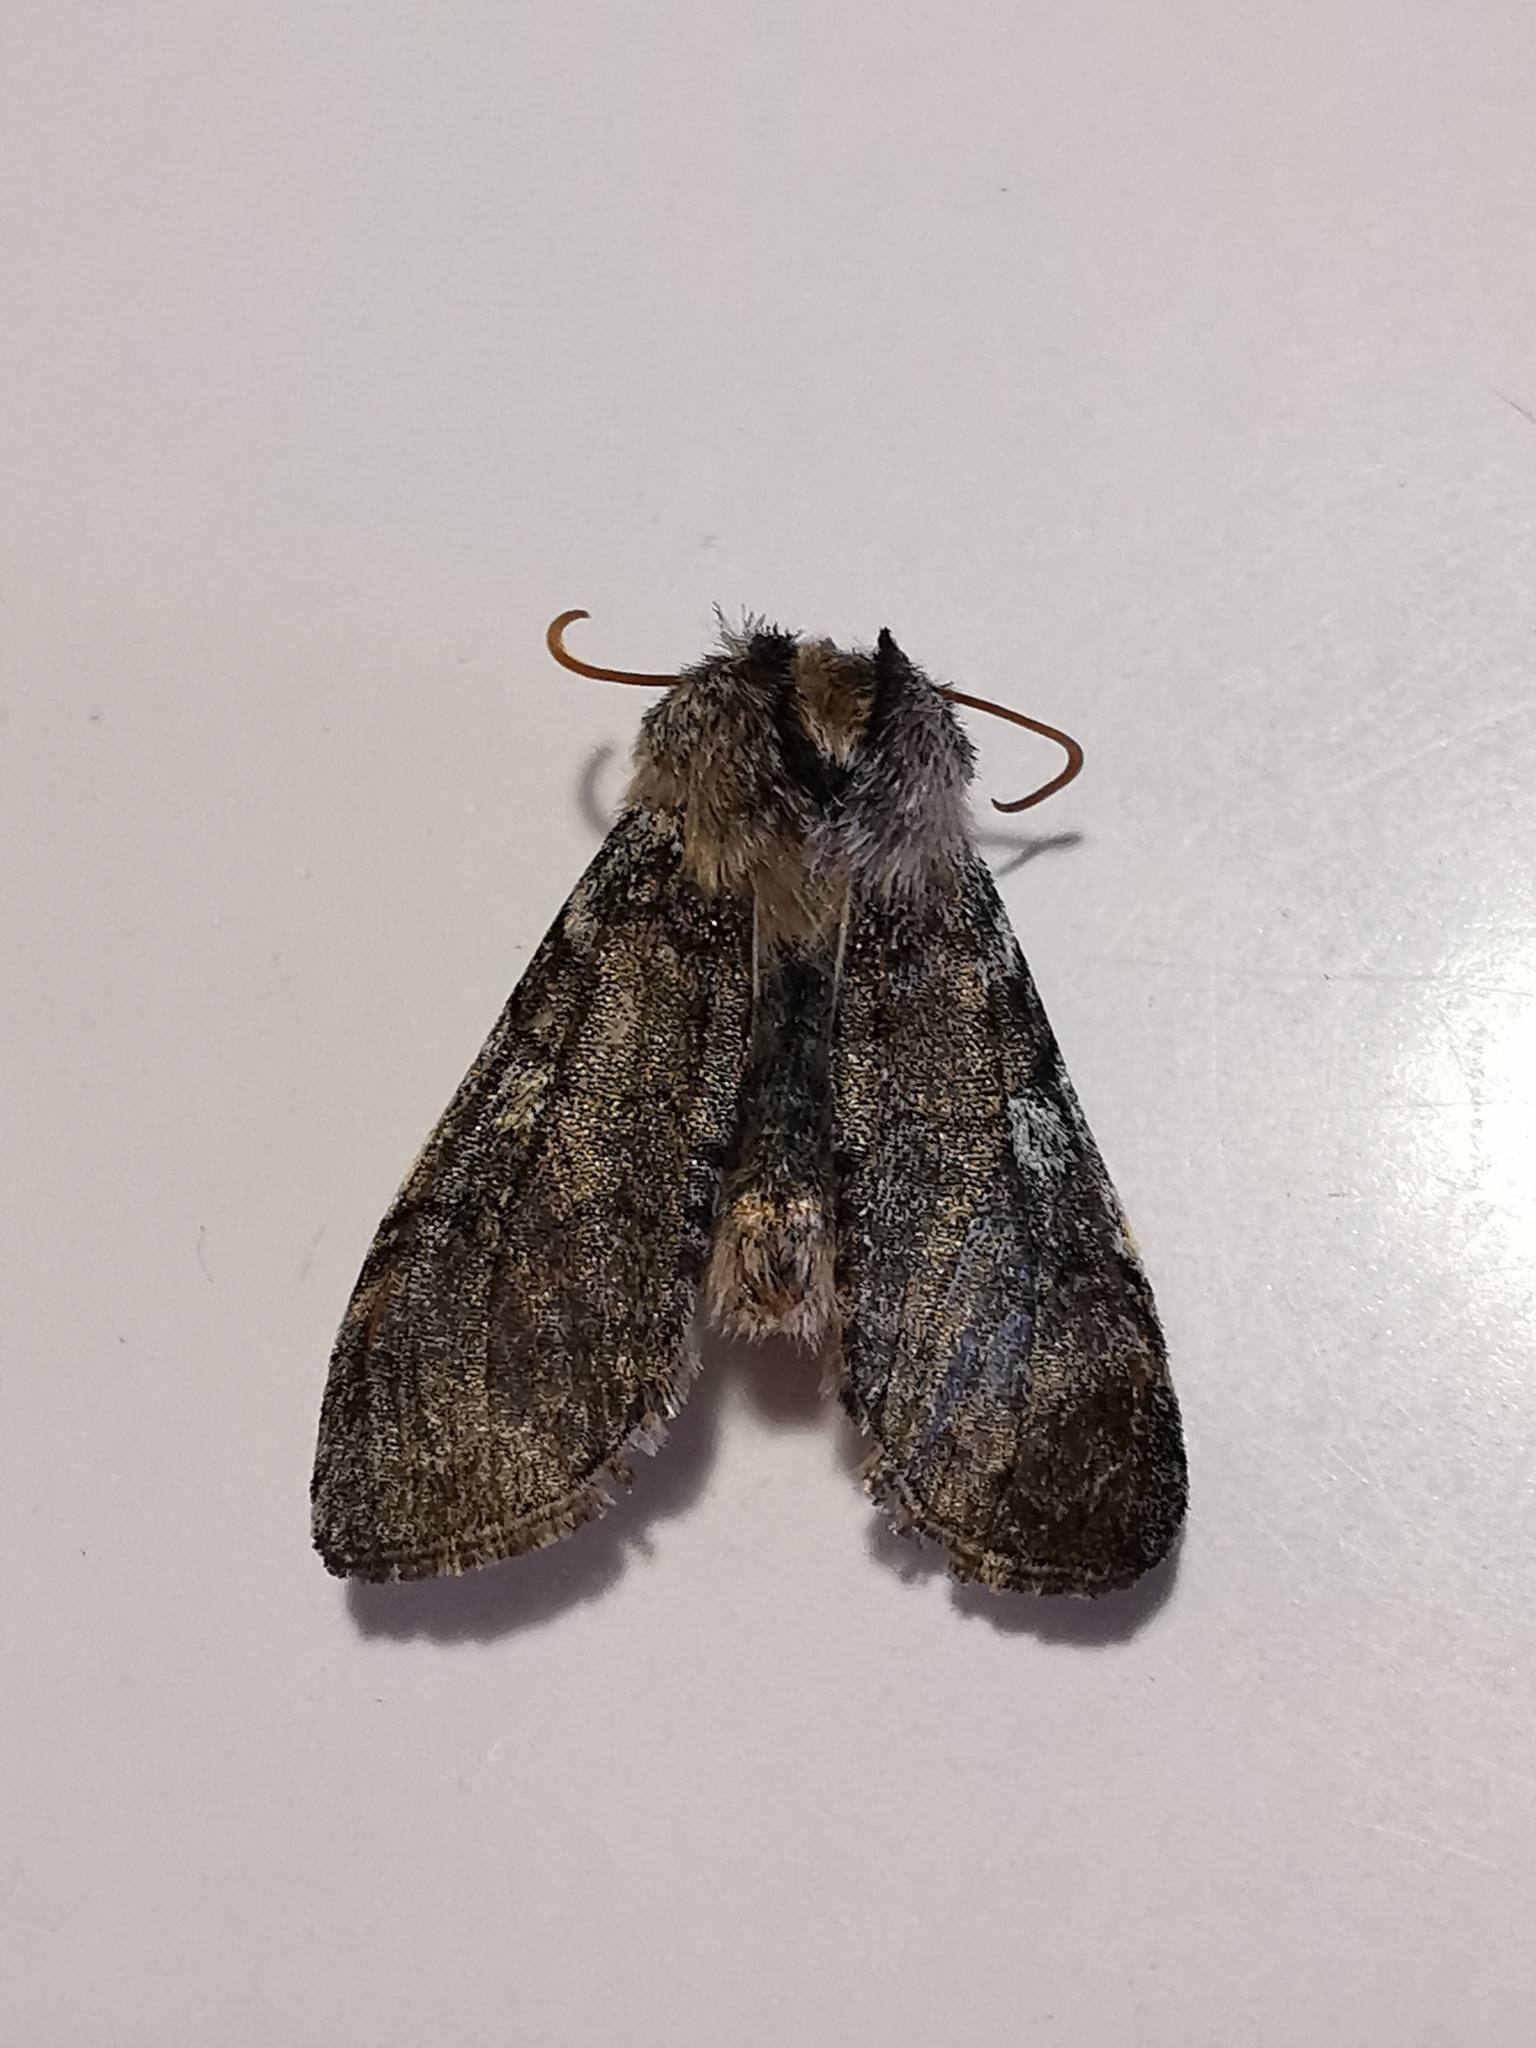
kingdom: Animalia
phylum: Arthropoda
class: Insecta
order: Lepidoptera
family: Drepanidae
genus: Achlya
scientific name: Achlya flavicornis
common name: Yellow horned
